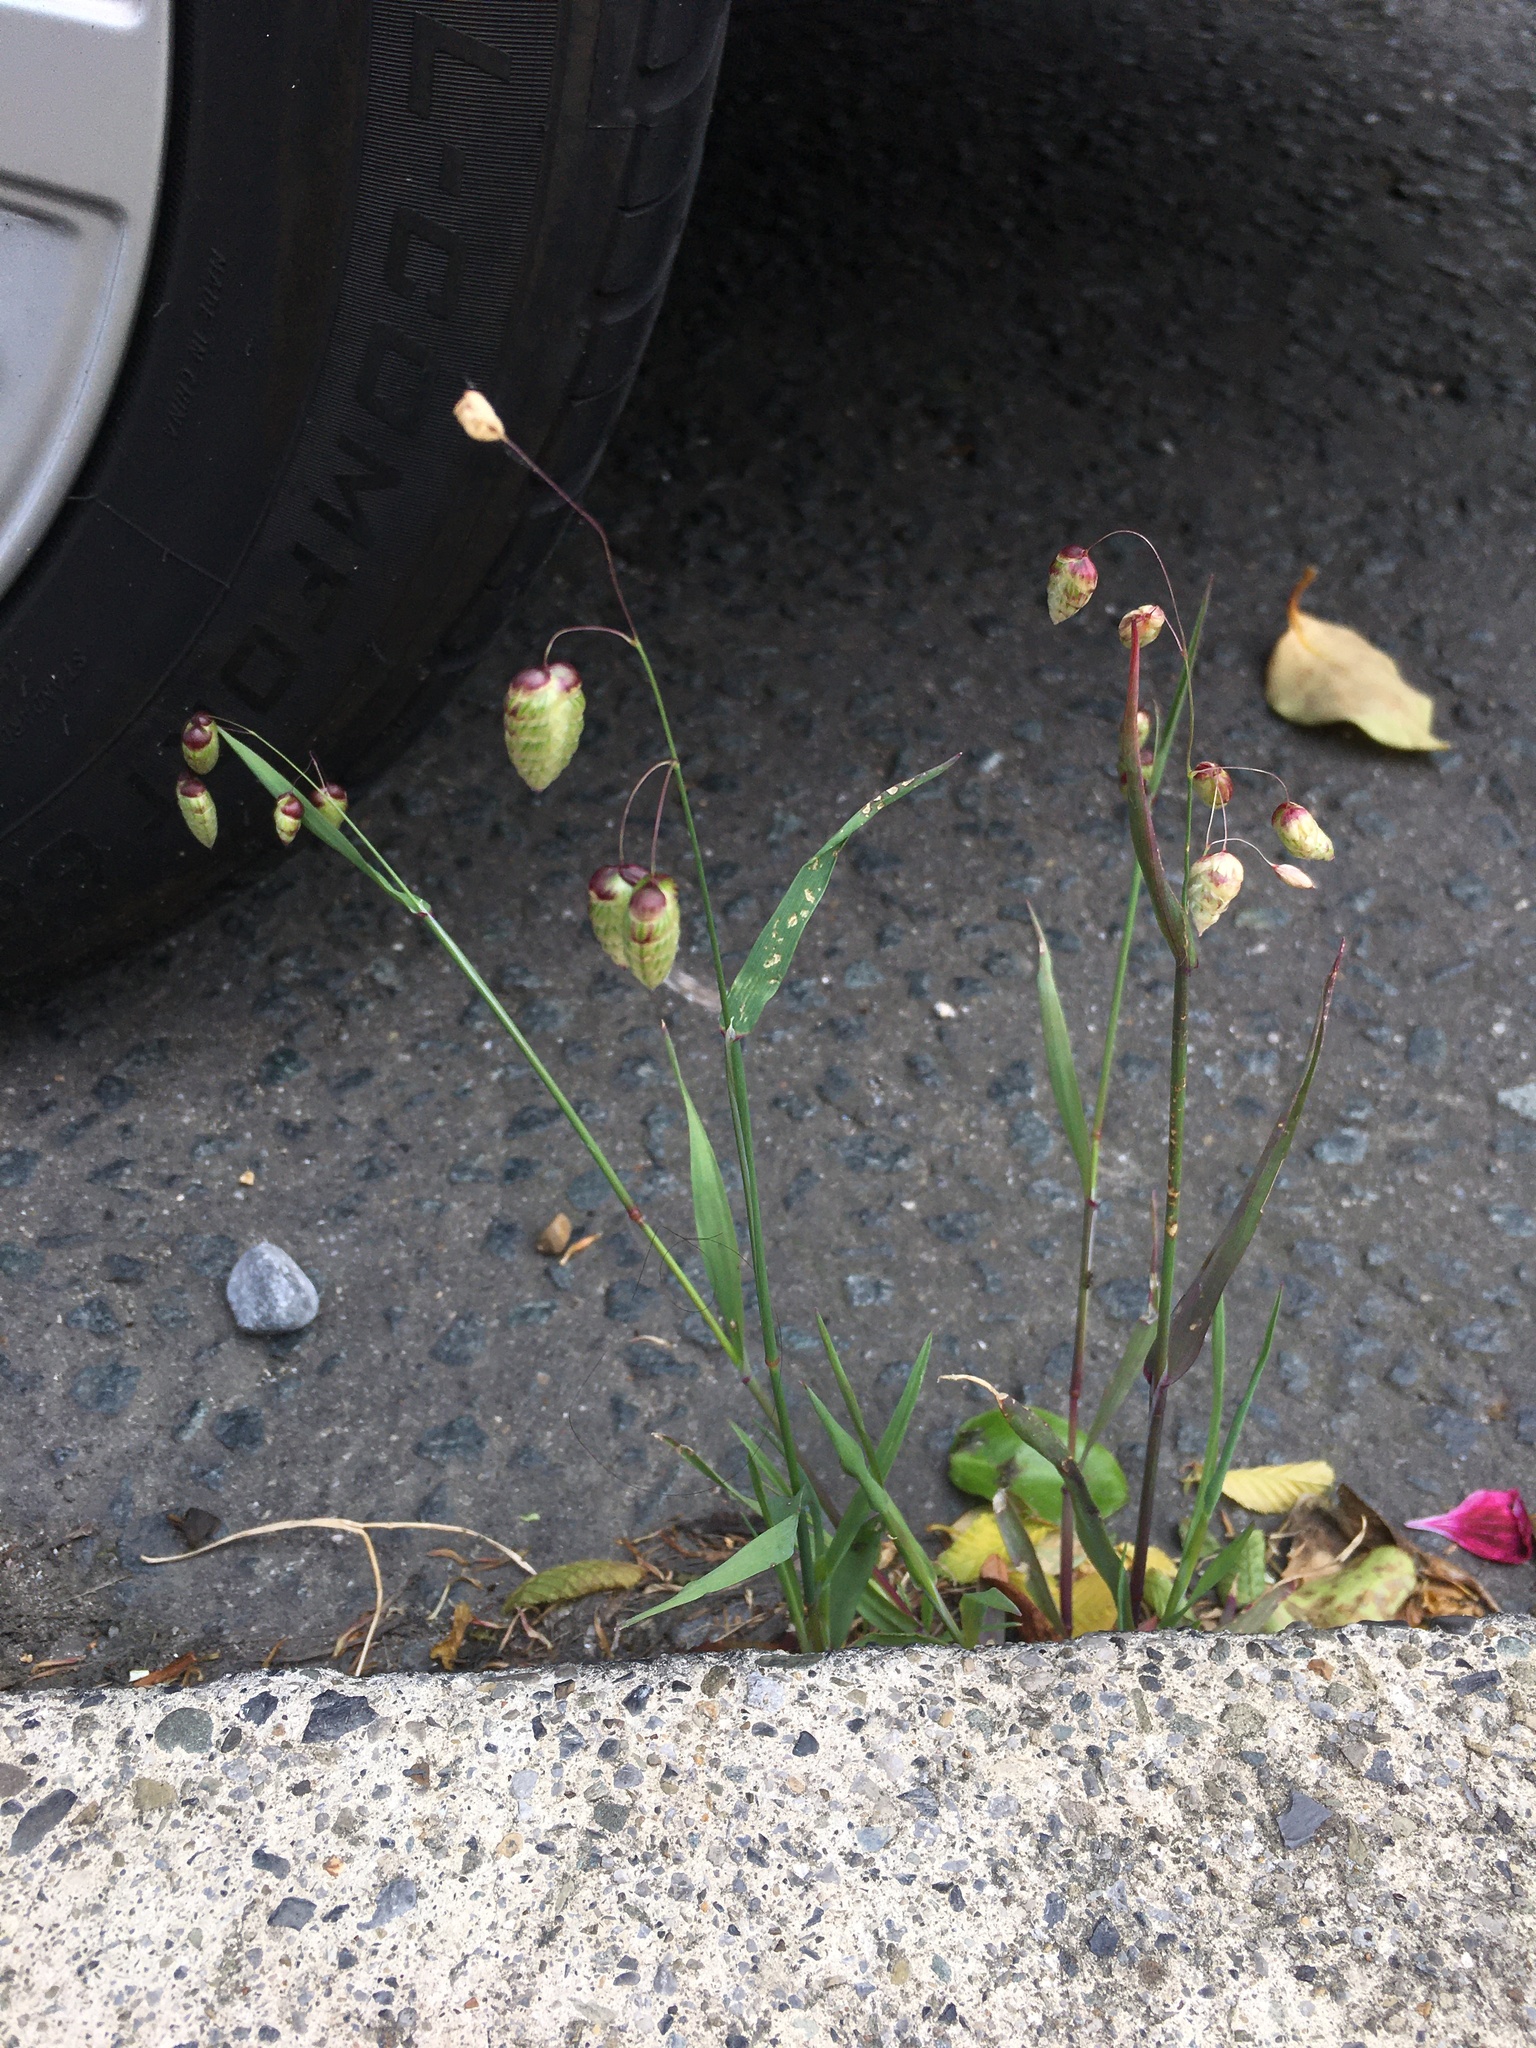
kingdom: Plantae
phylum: Tracheophyta
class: Liliopsida
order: Poales
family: Poaceae
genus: Briza
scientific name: Briza maxima
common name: Big quakinggrass
